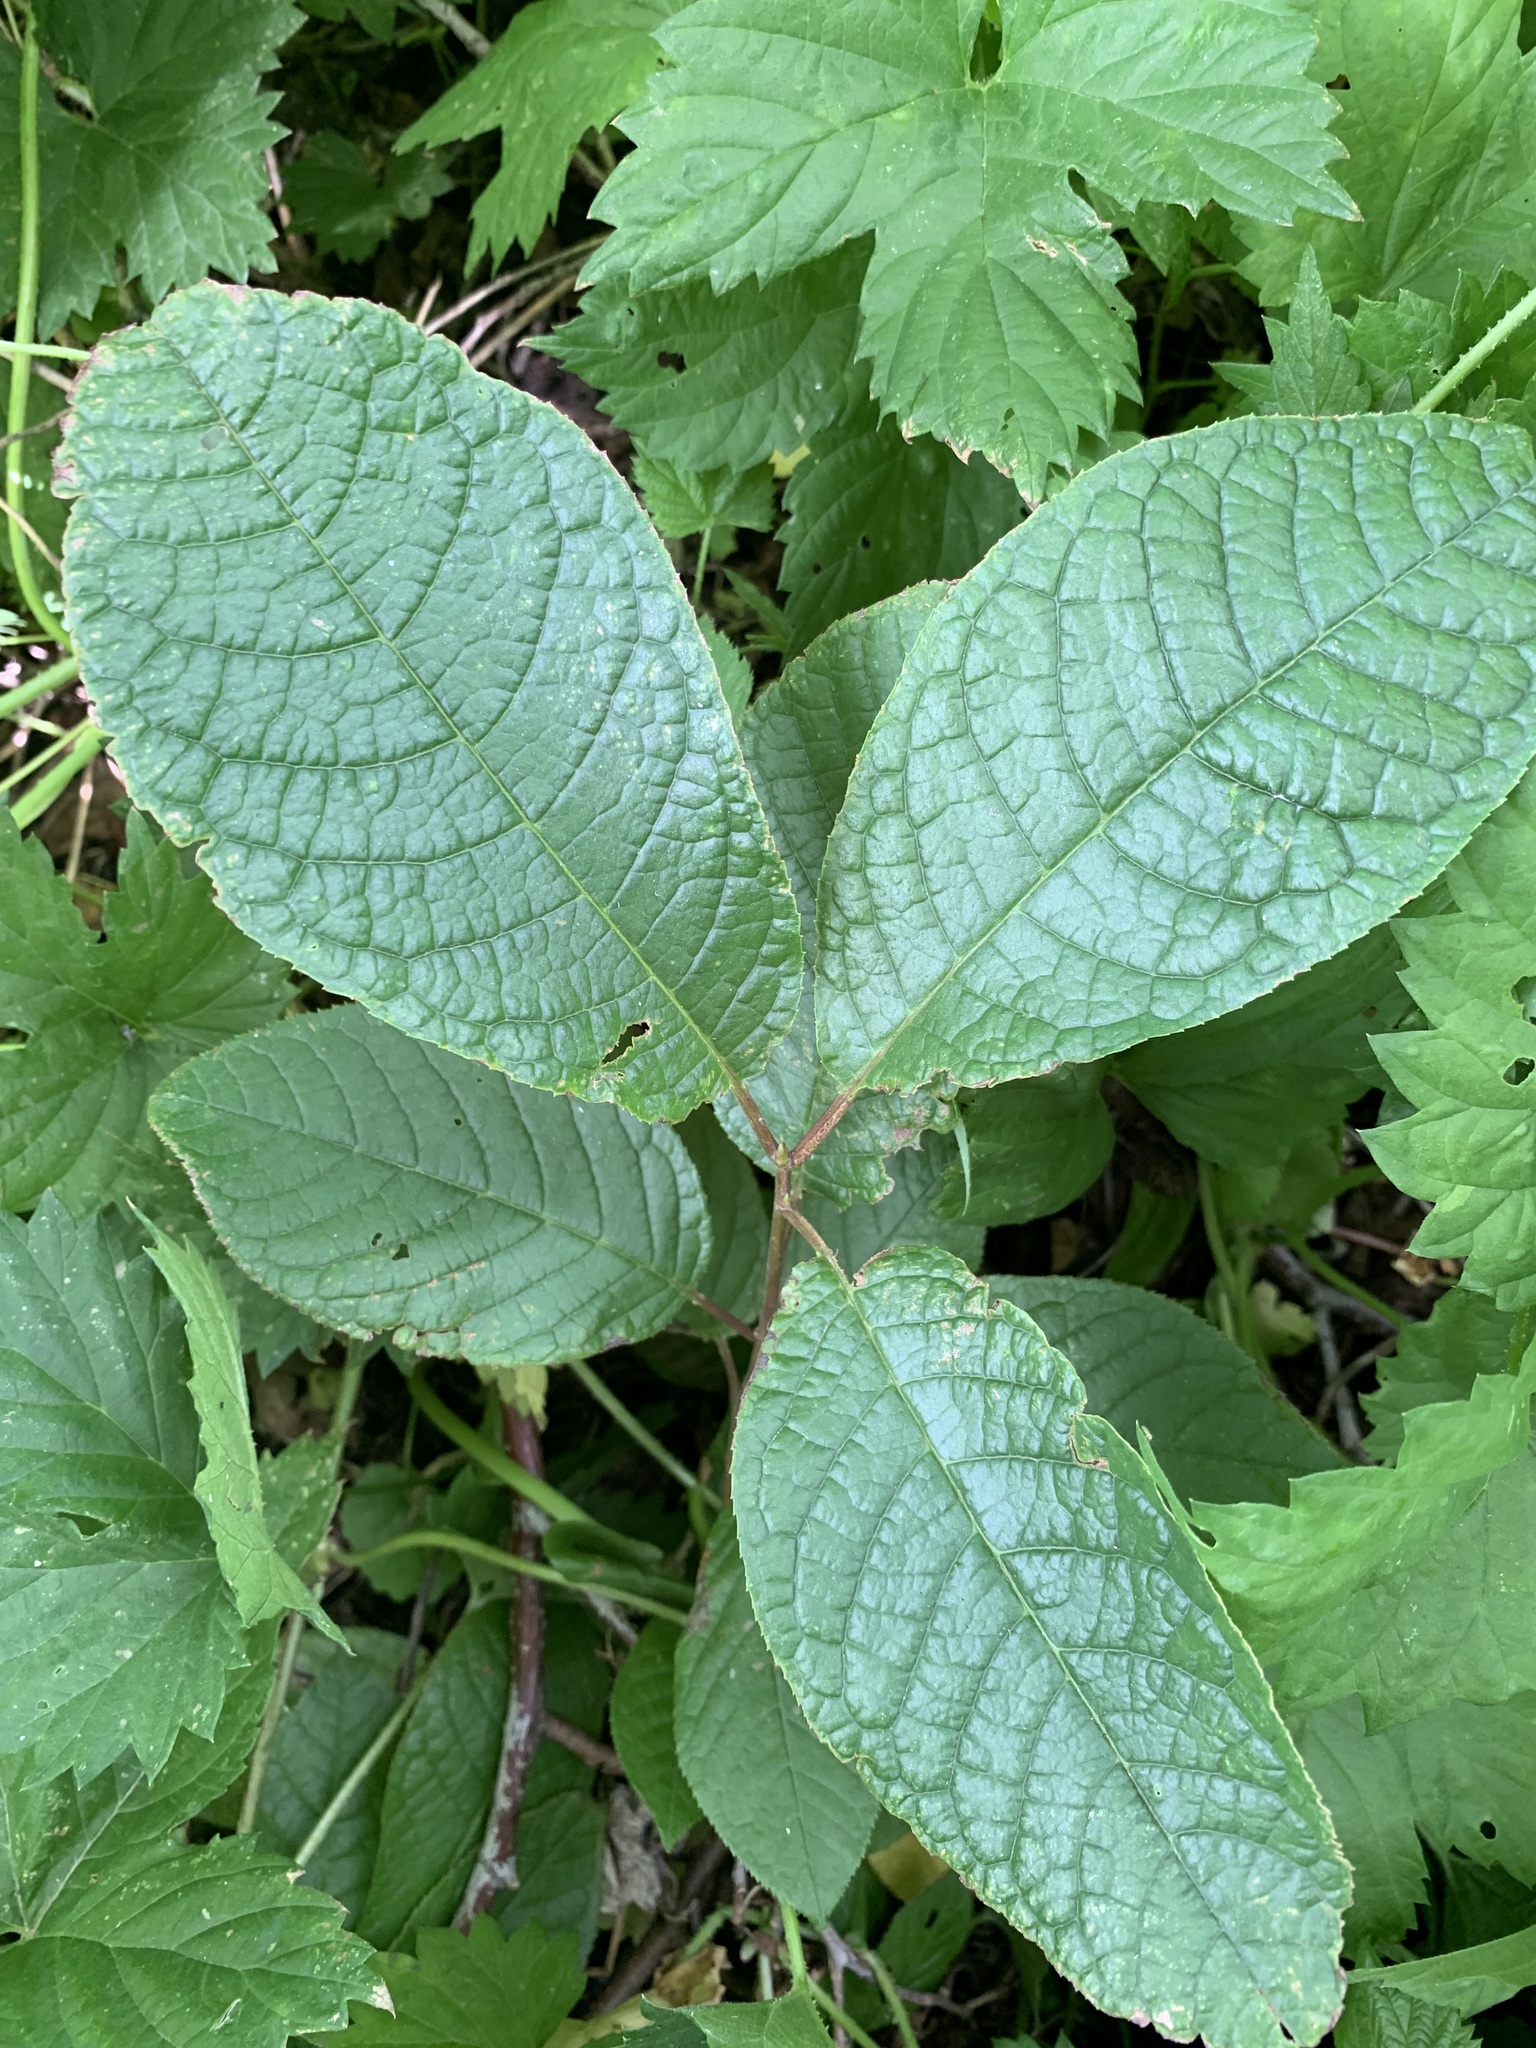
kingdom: Plantae
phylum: Tracheophyta
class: Magnoliopsida
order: Rosales
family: Rosaceae
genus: Prunus
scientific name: Prunus padus
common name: Bird cherry
